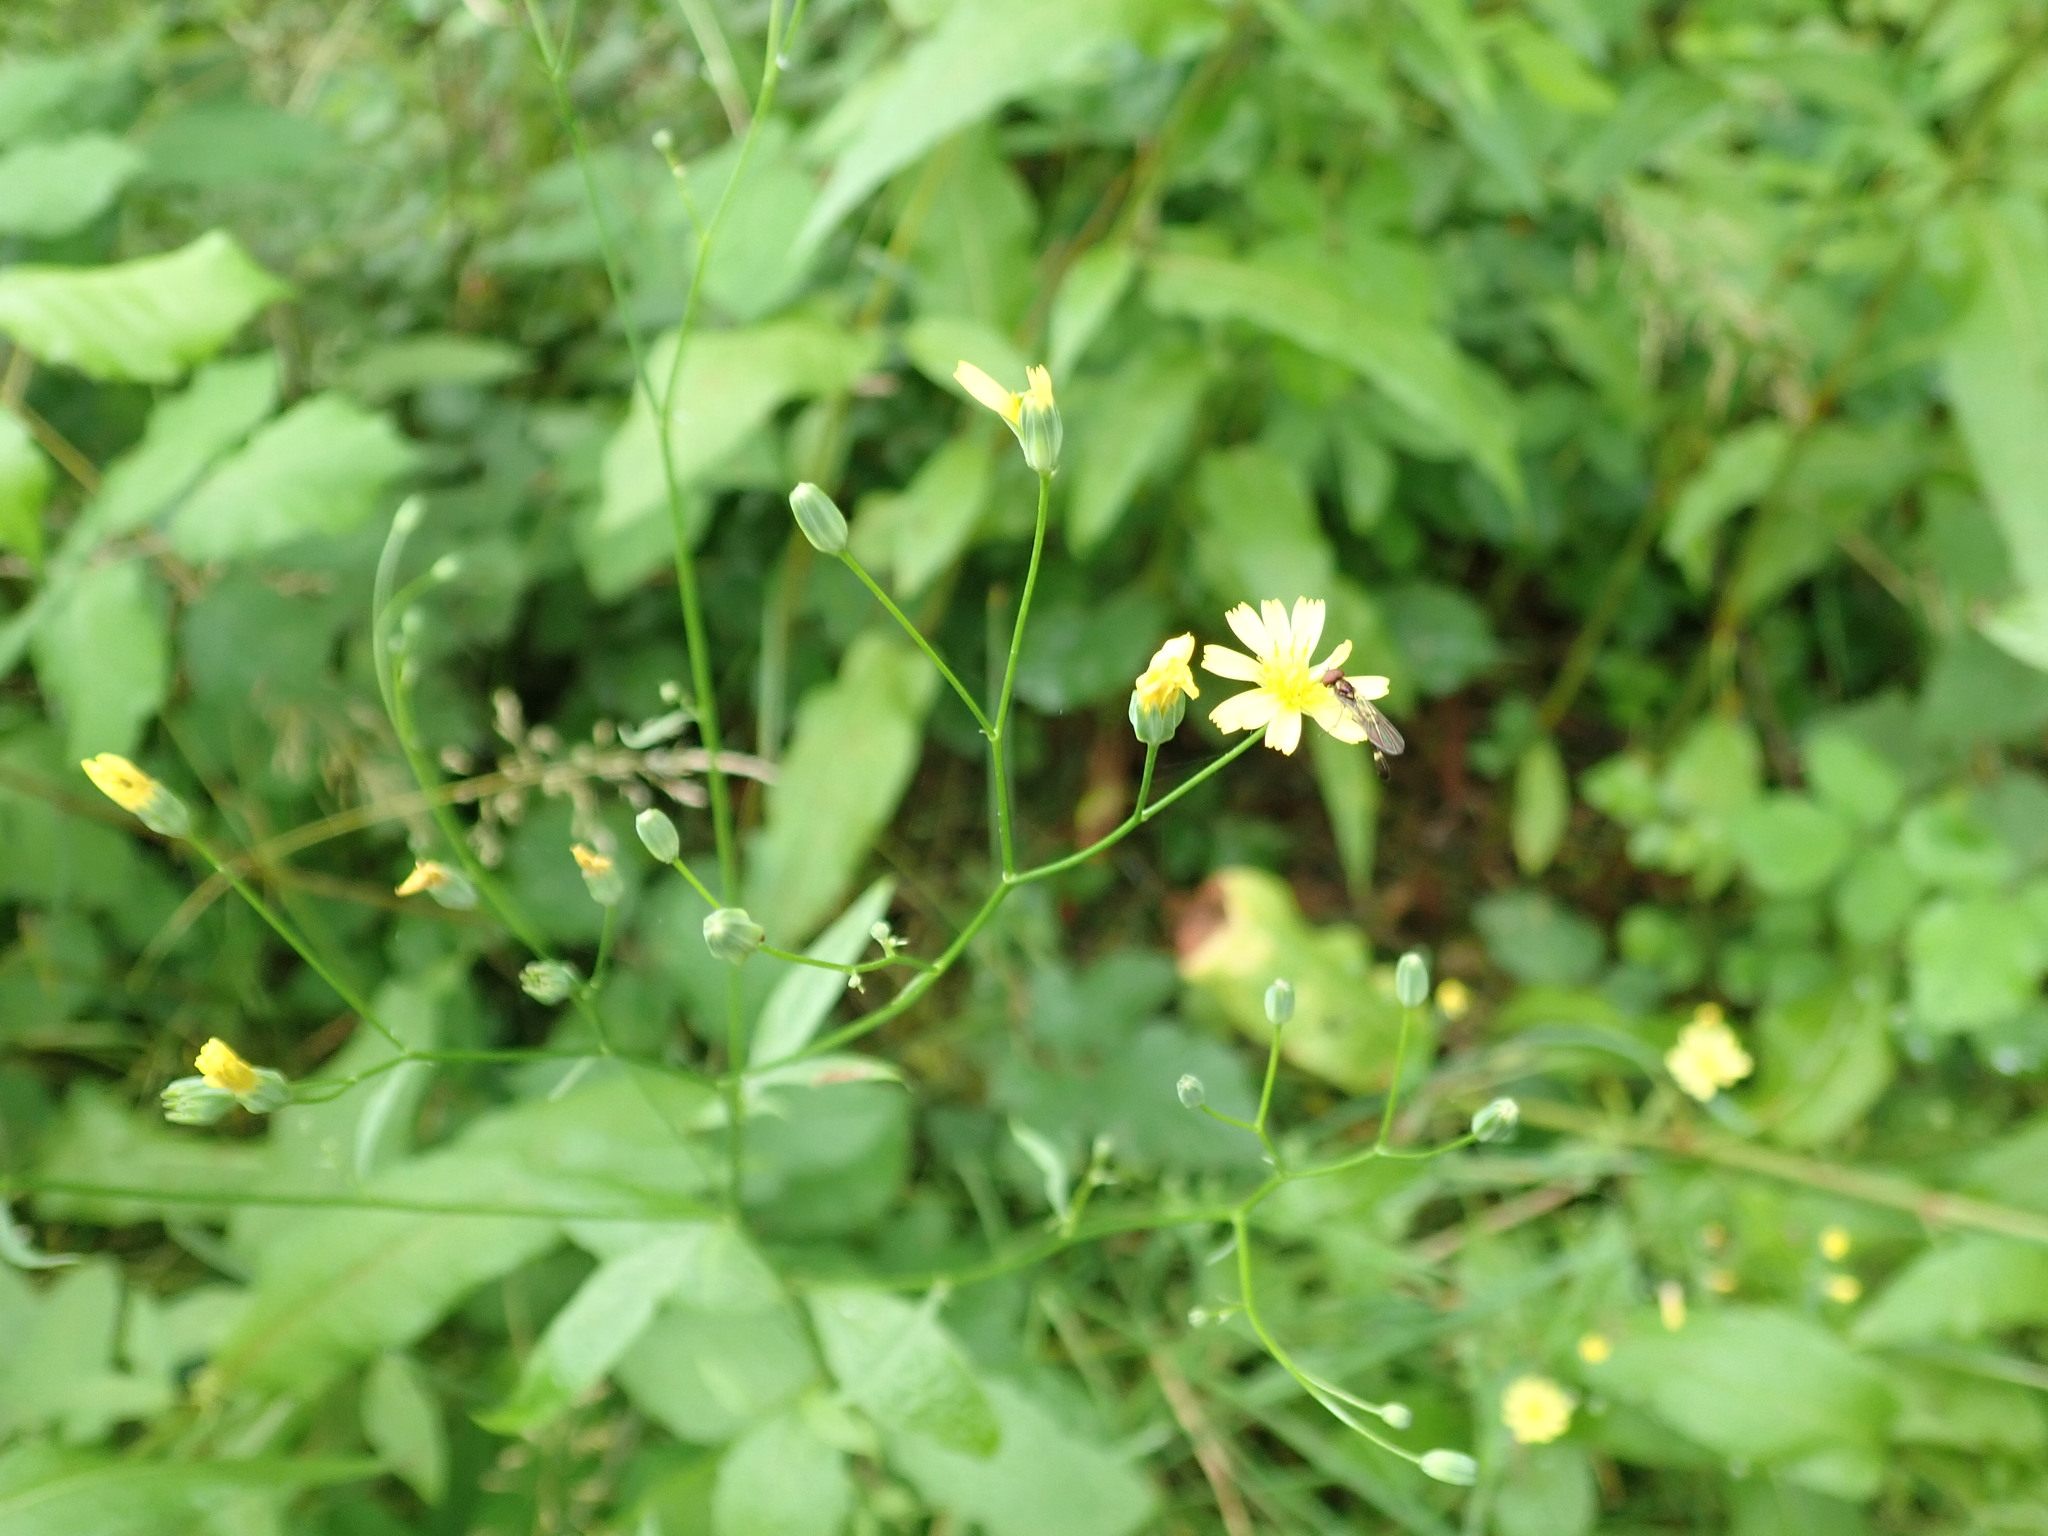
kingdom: Plantae
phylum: Tracheophyta
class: Magnoliopsida
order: Asterales
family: Asteraceae
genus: Lapsana
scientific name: Lapsana communis
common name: Nipplewort
